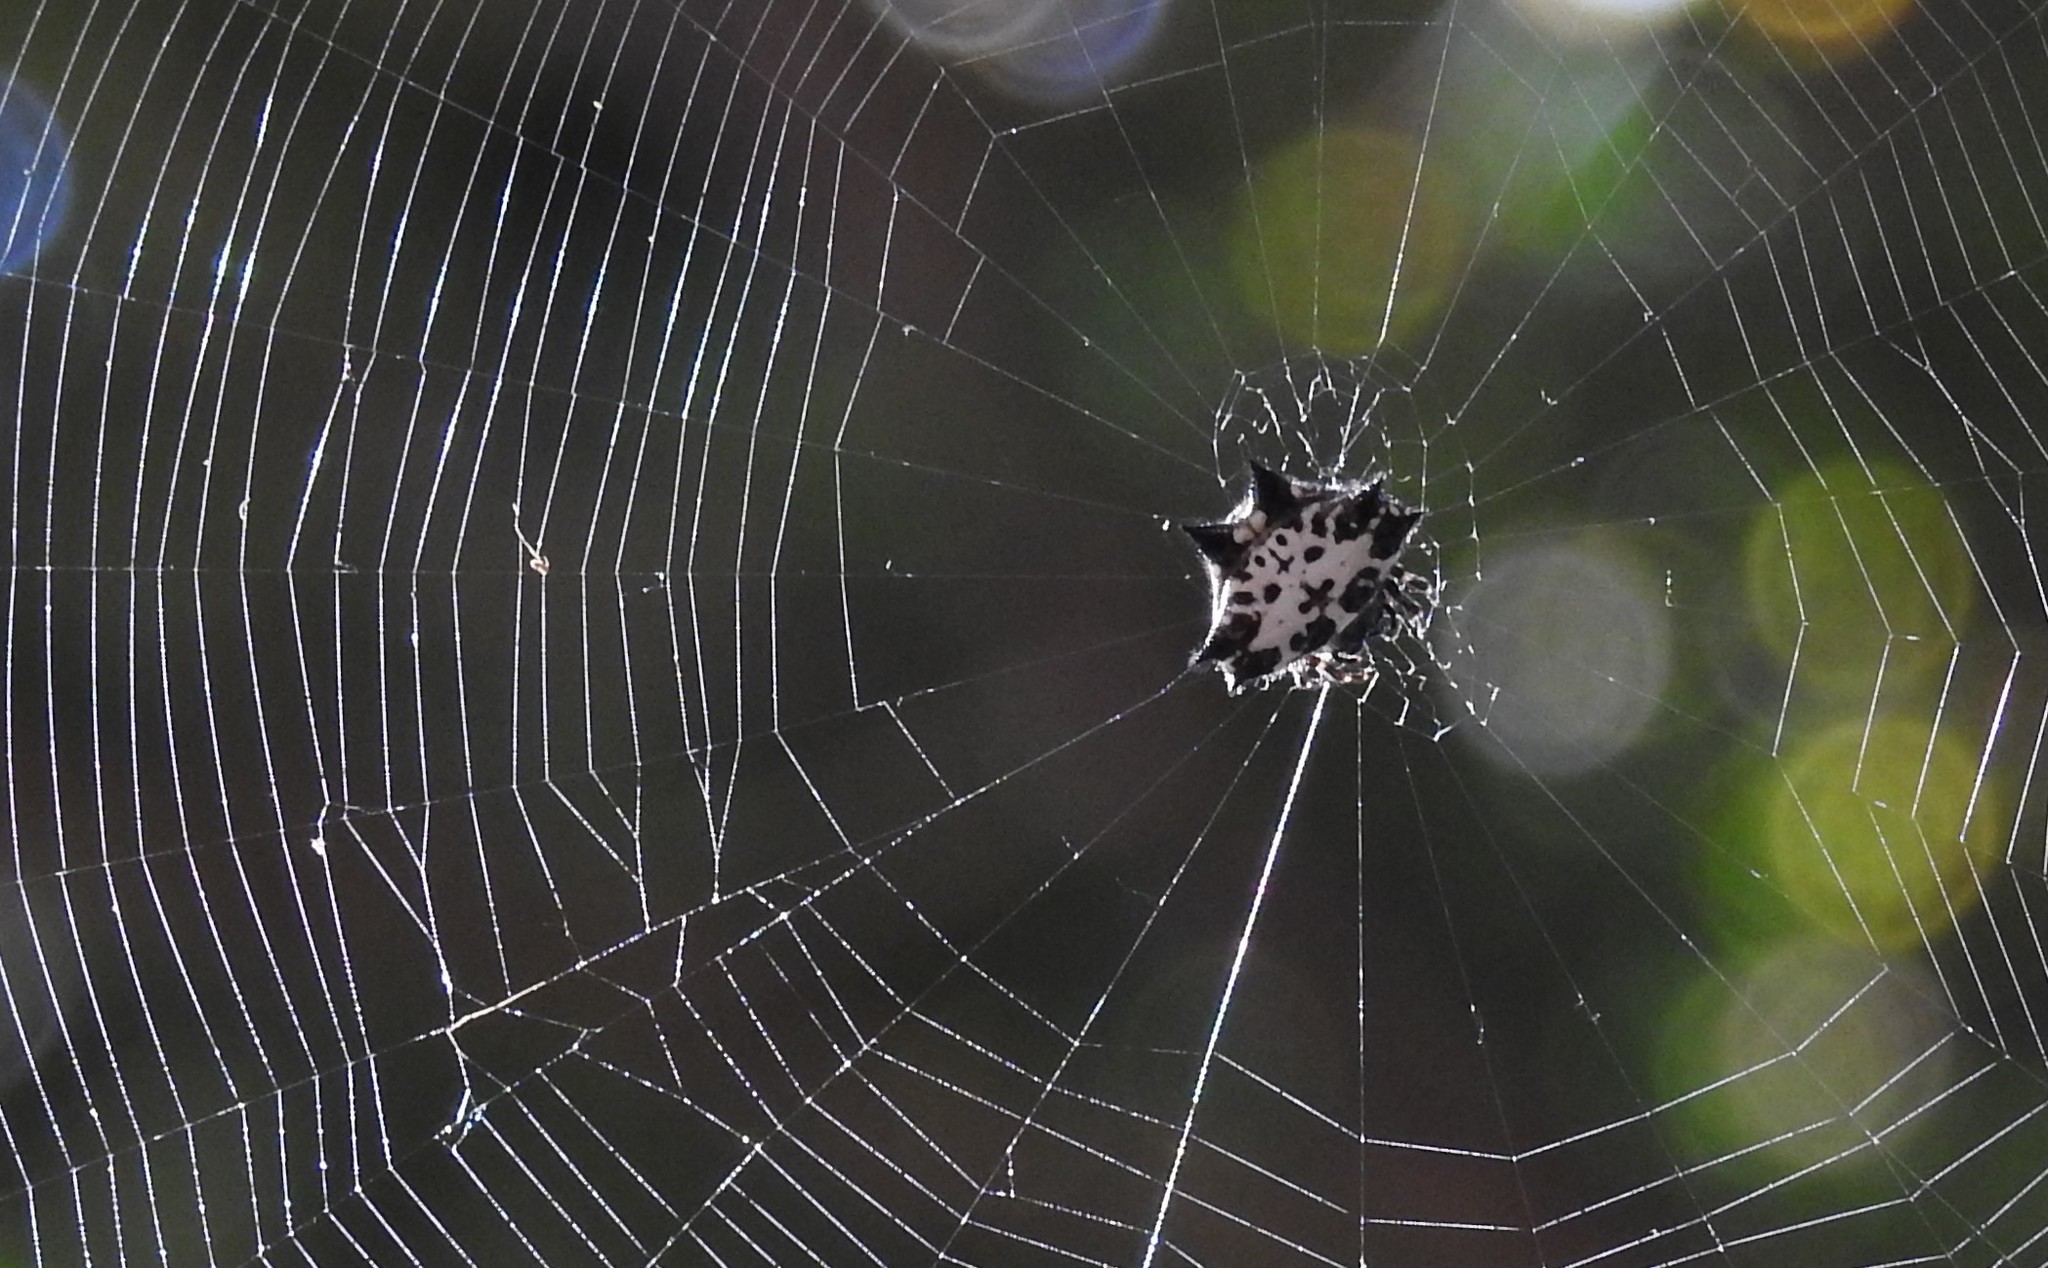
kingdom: Animalia
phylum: Arthropoda
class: Arachnida
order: Araneae
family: Araneidae
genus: Gasteracantha
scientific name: Gasteracantha kuhli
